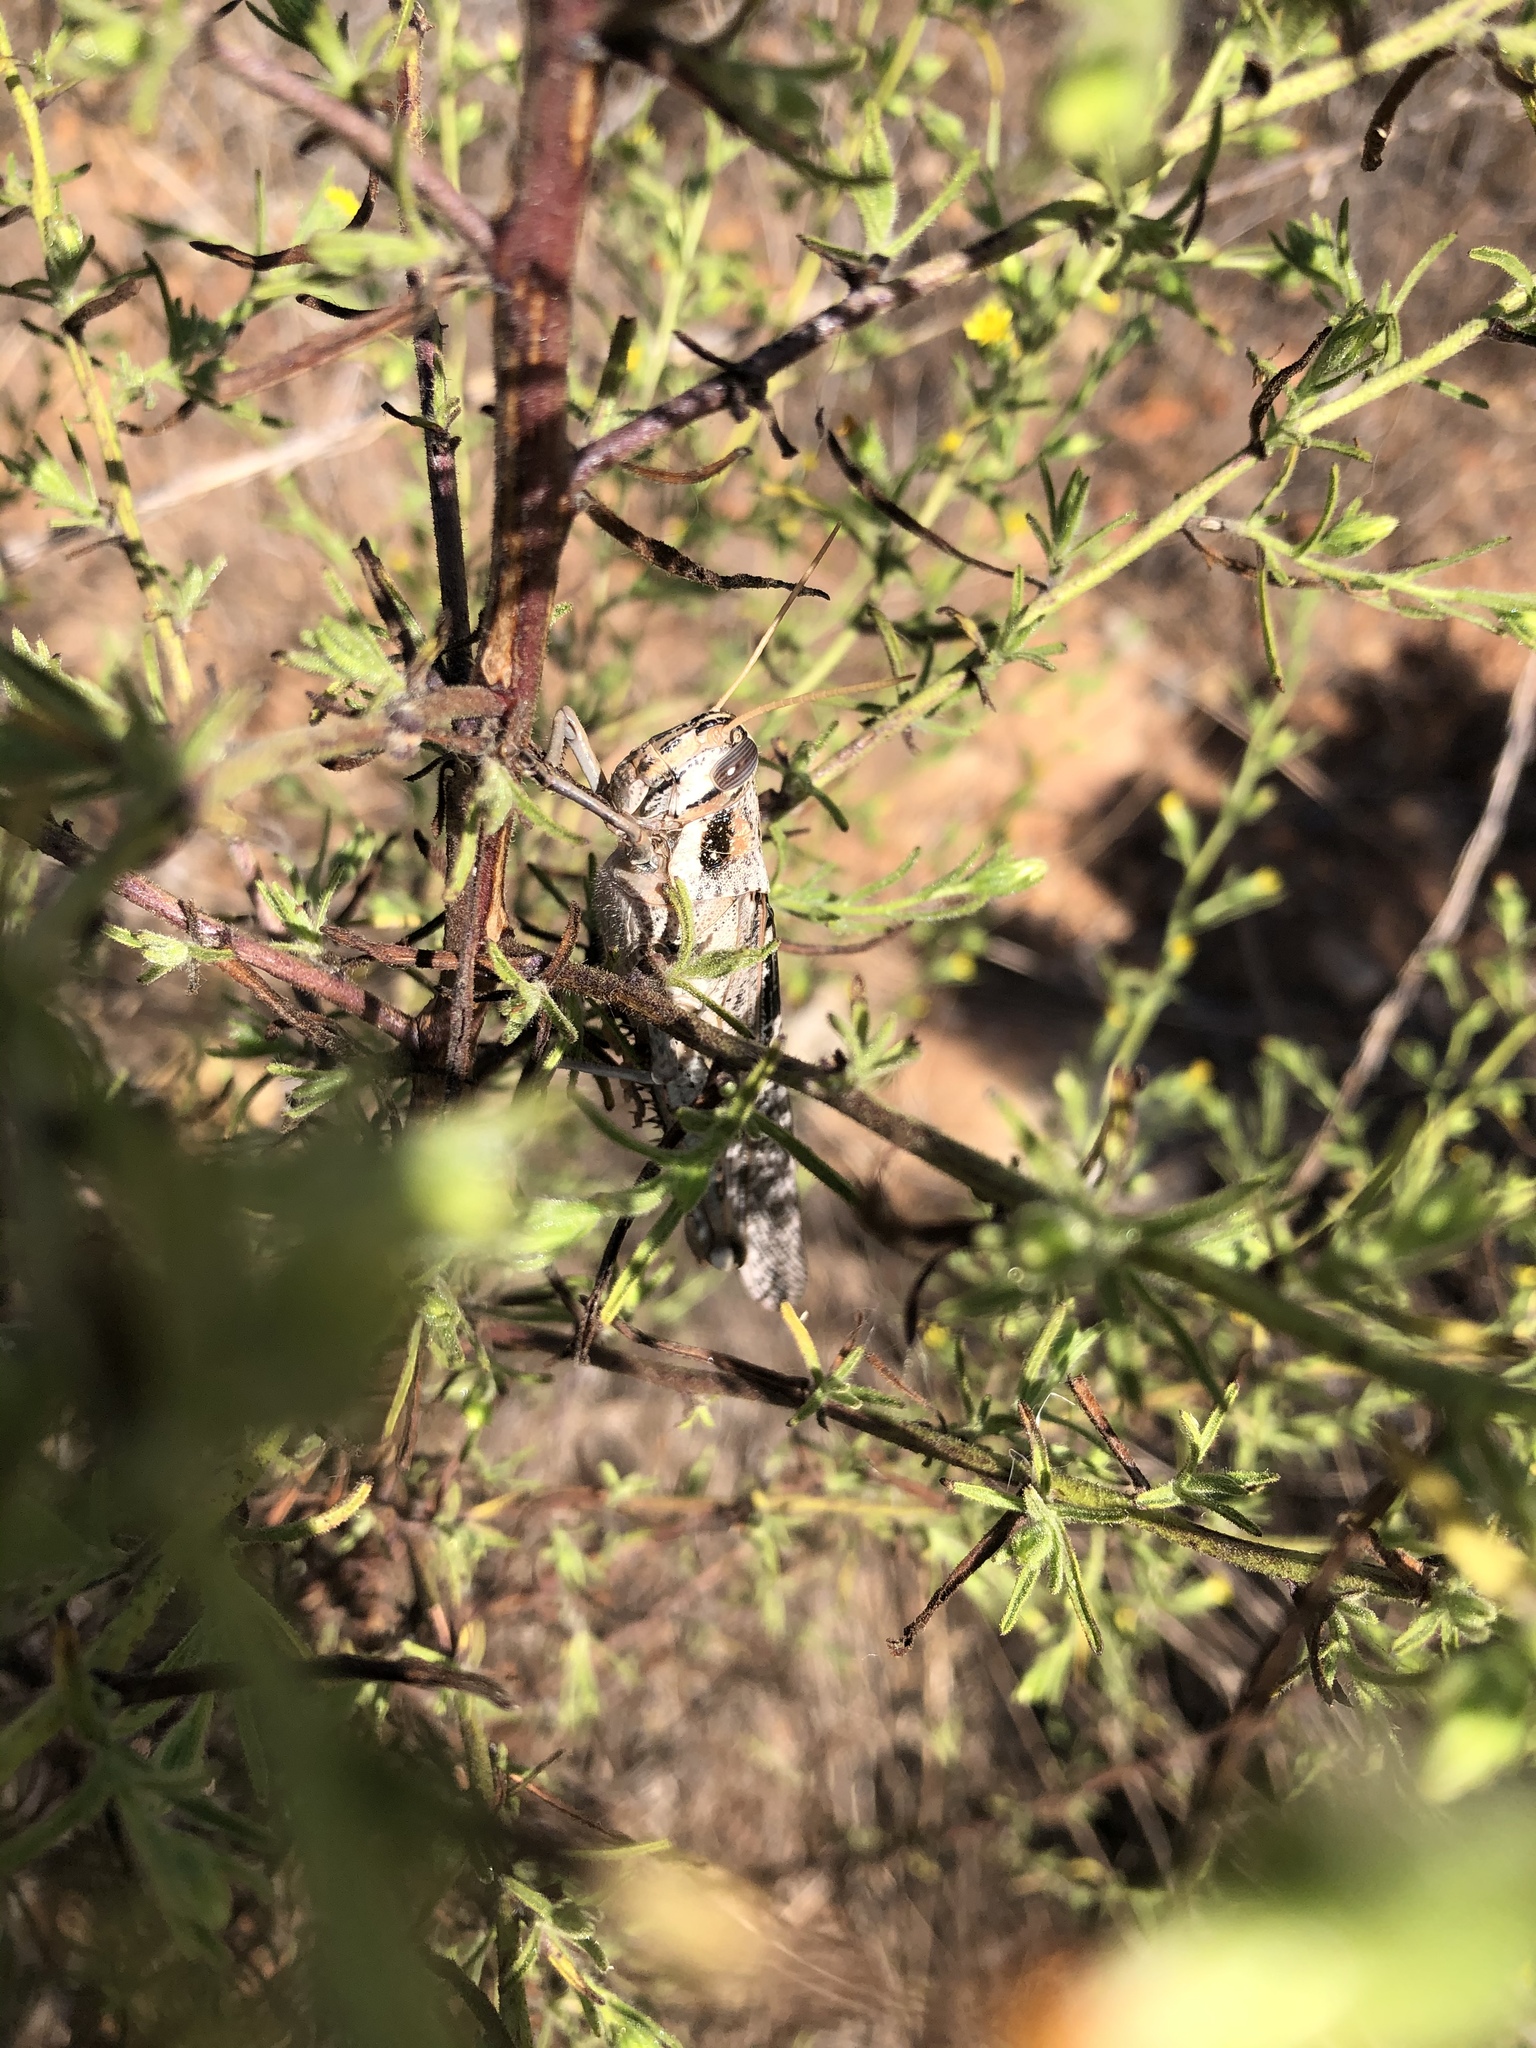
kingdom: Animalia
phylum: Arthropoda
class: Insecta
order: Orthoptera
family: Acrididae
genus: Schistocerca
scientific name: Schistocerca nitens
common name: Vagrant grasshopper
